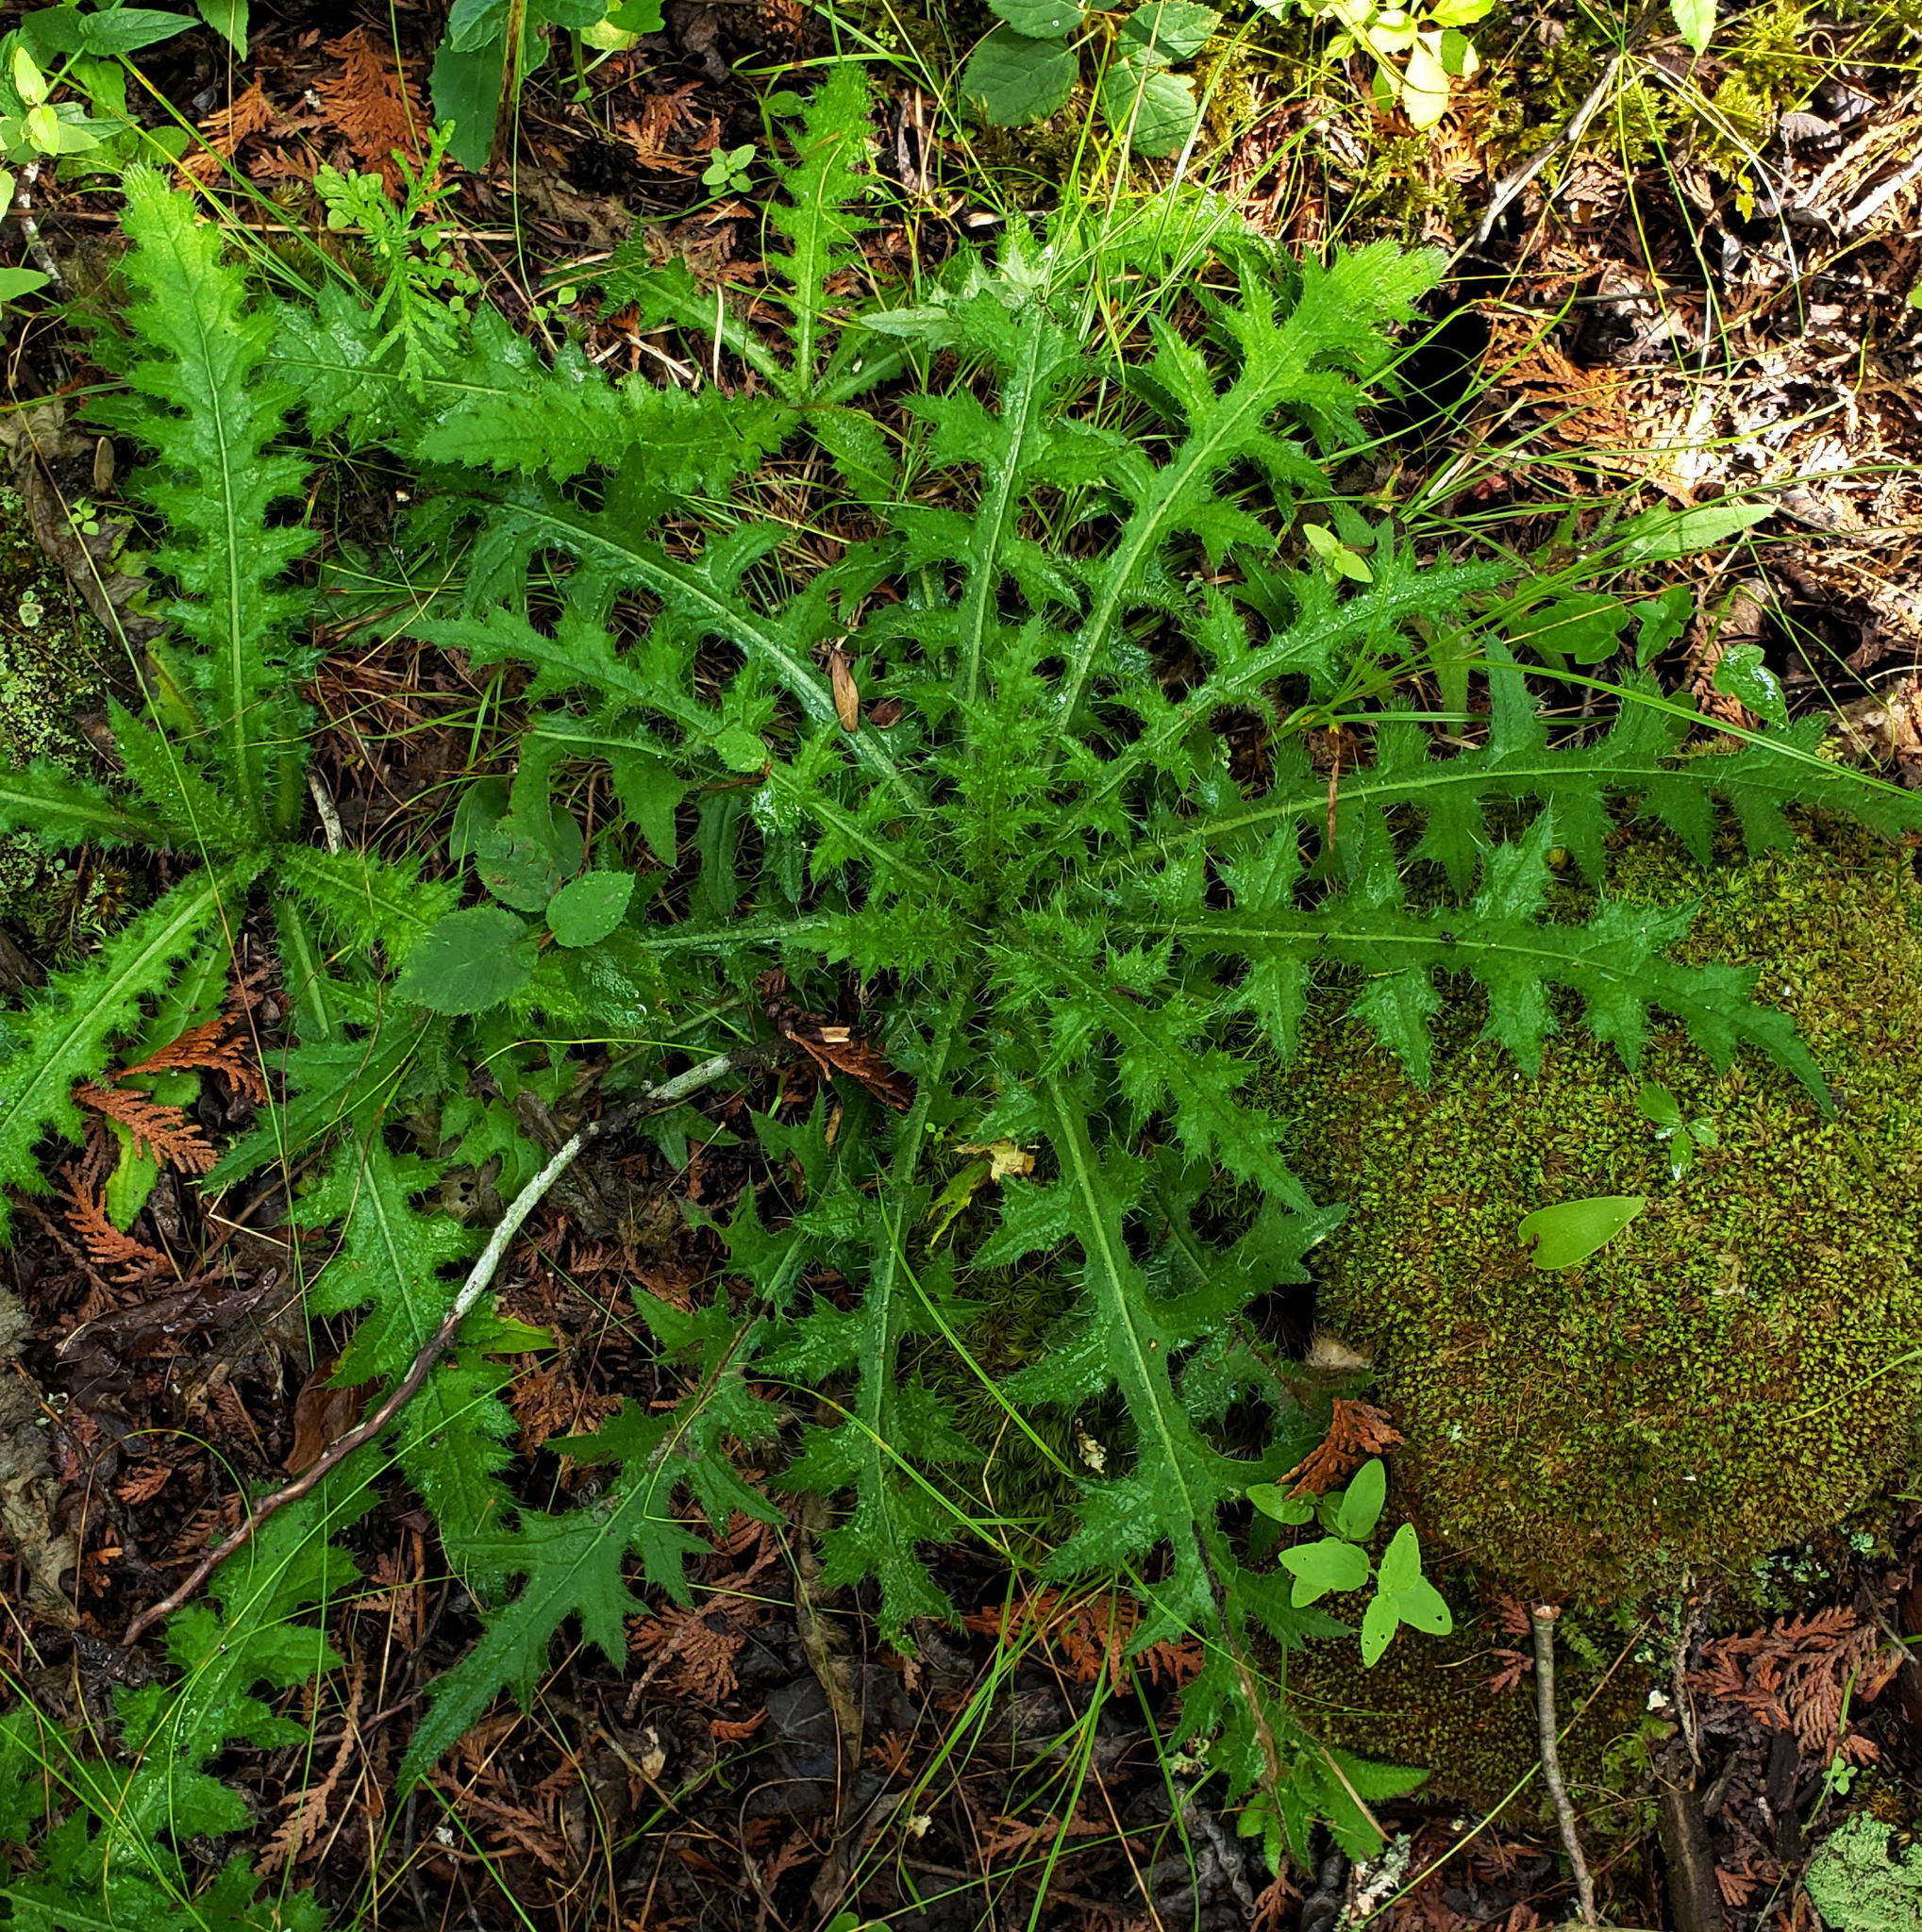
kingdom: Plantae
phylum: Tracheophyta
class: Magnoliopsida
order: Asterales
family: Asteraceae
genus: Cirsium
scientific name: Cirsium palustre
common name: Marsh thistle
